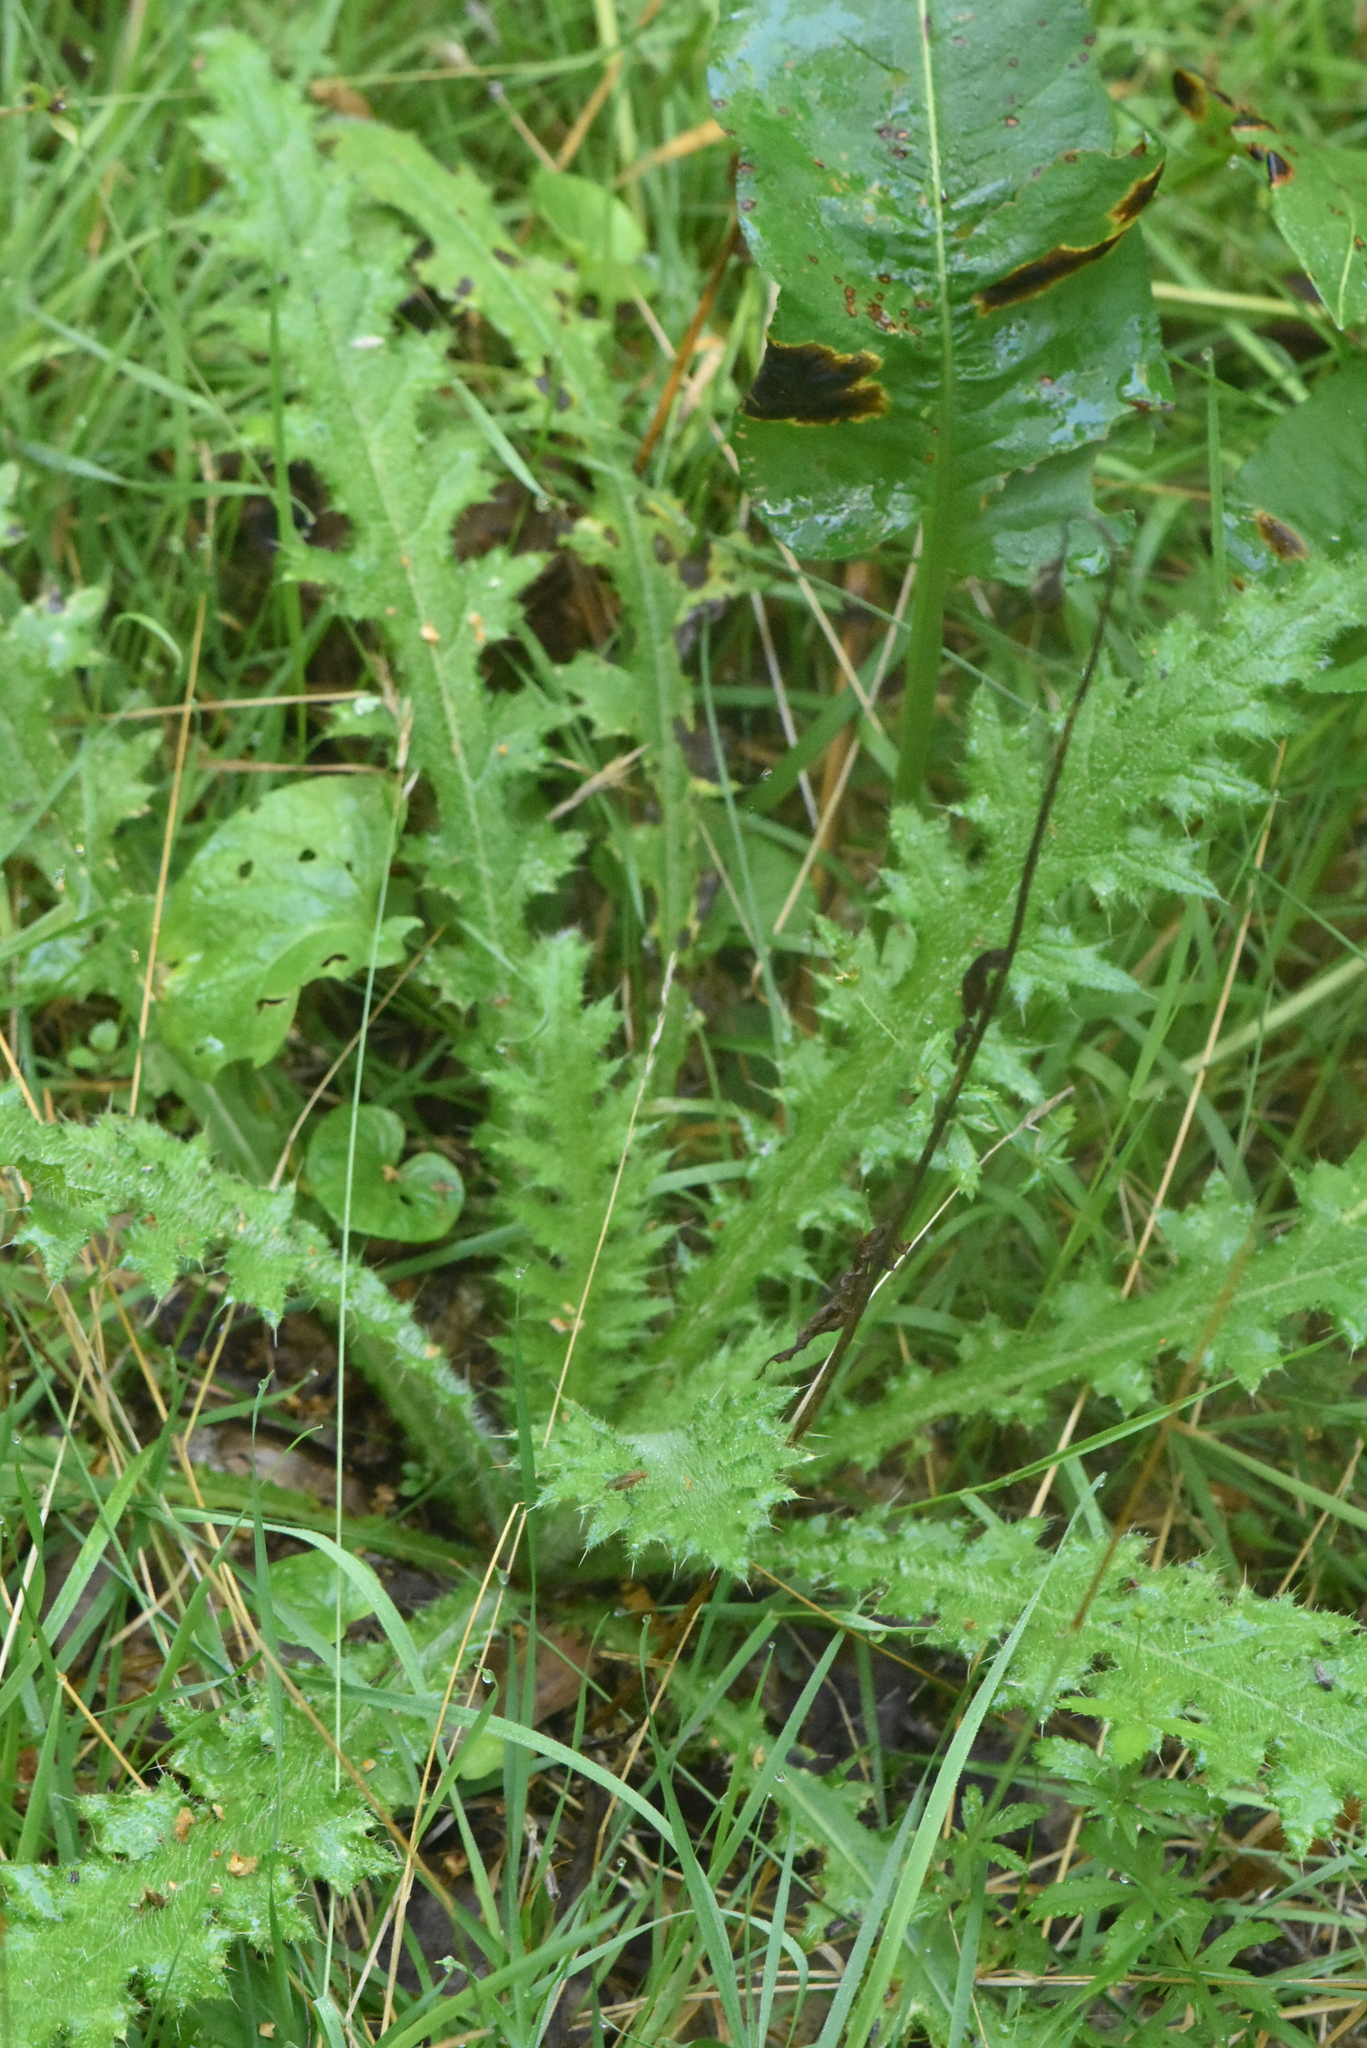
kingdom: Plantae
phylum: Tracheophyta
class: Magnoliopsida
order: Asterales
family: Asteraceae
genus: Cirsium
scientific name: Cirsium palustre
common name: Marsh thistle
